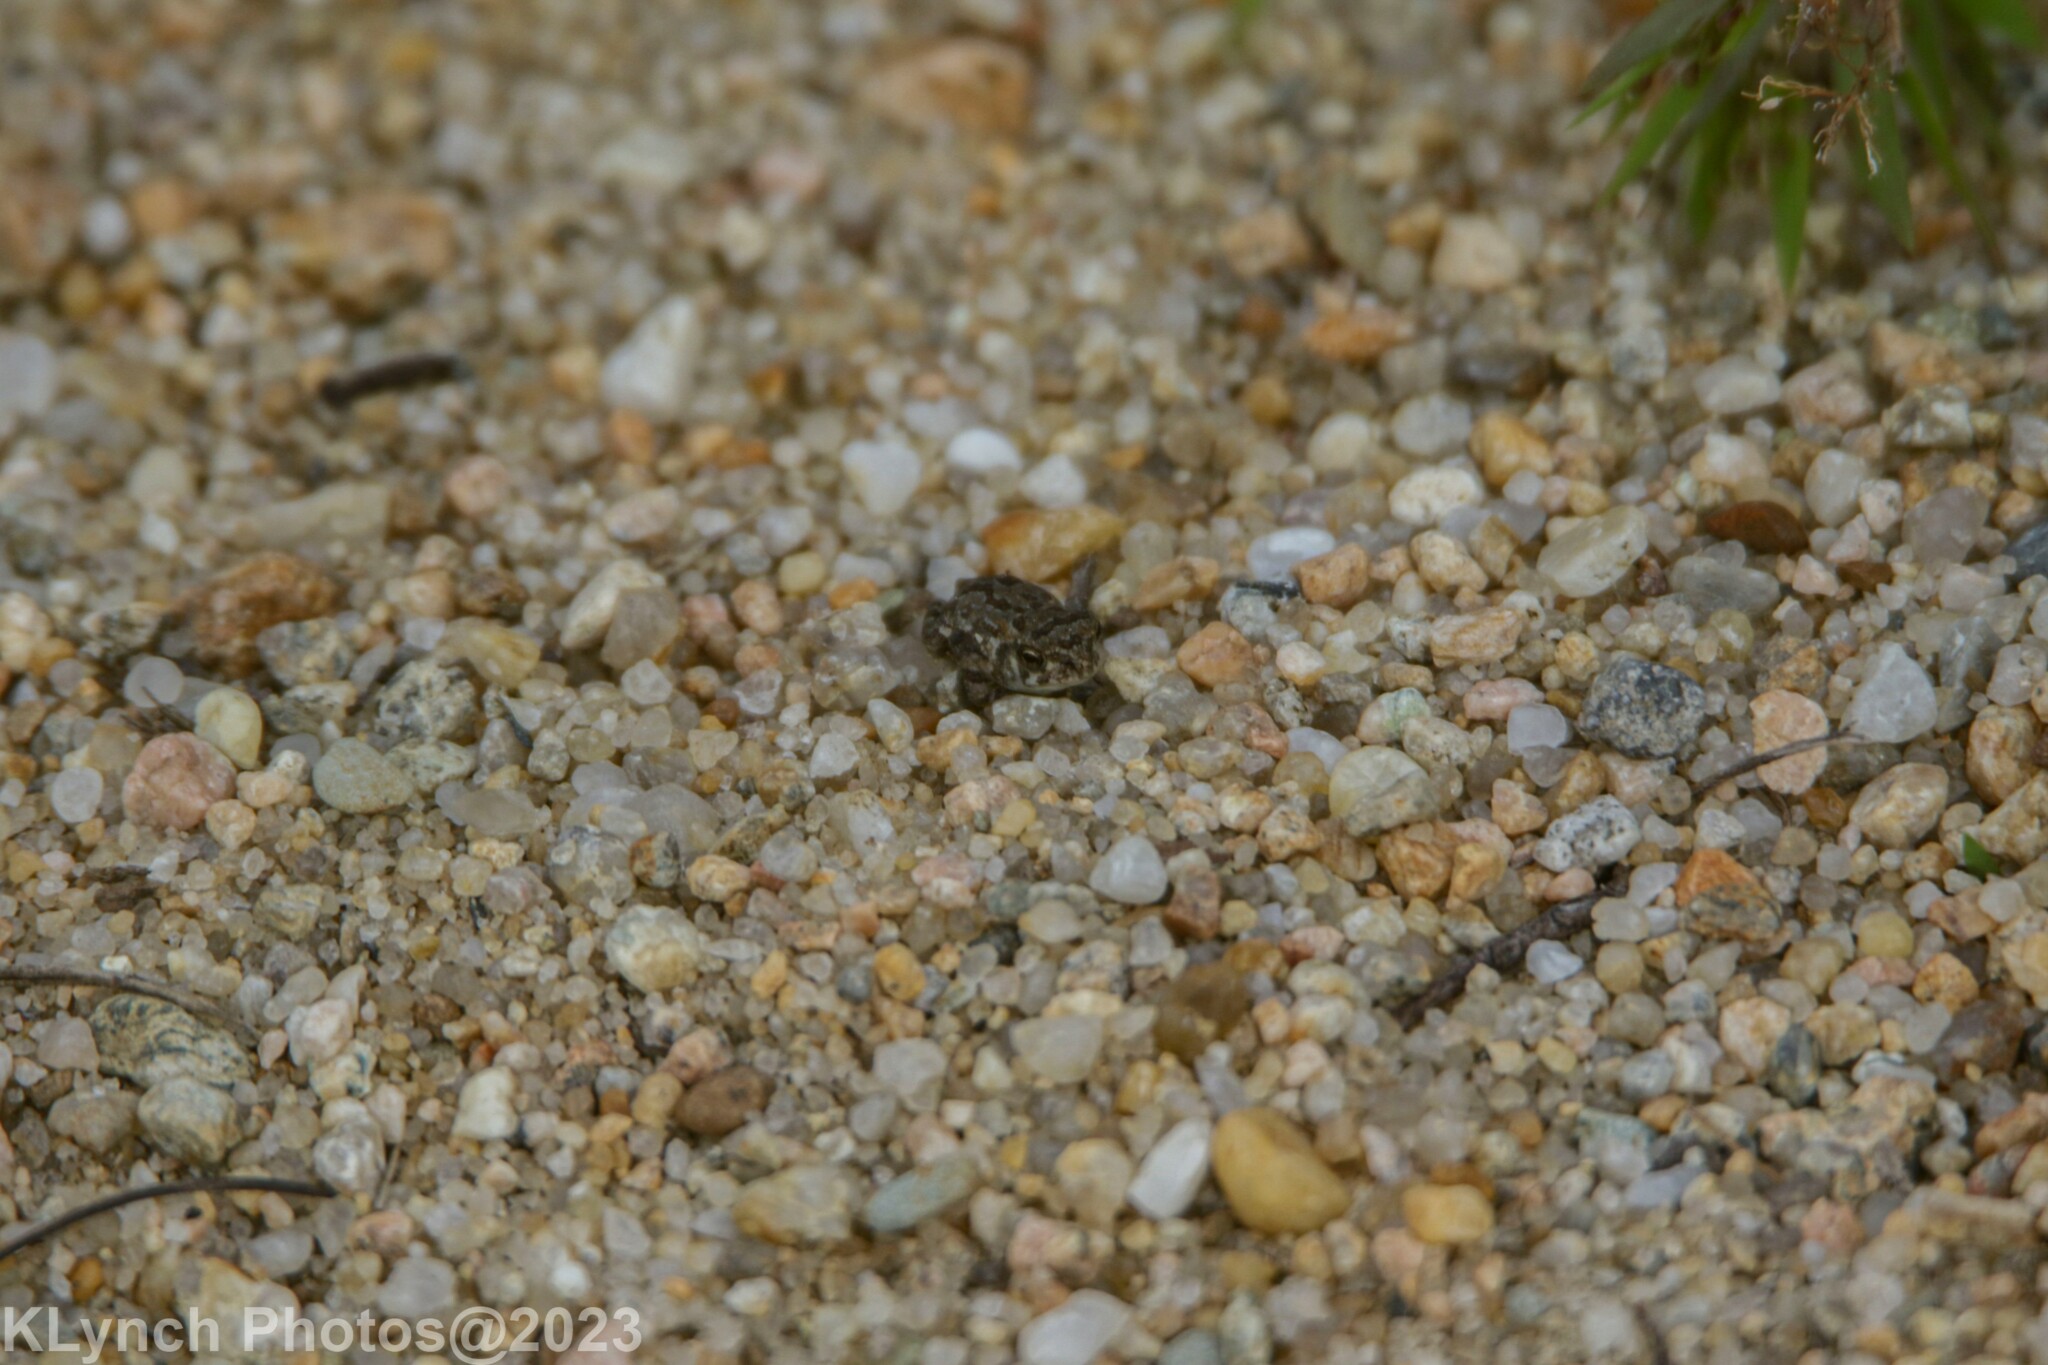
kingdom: Animalia
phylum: Chordata
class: Amphibia
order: Anura
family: Bufonidae
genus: Anaxyrus
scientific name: Anaxyrus fowleri
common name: Fowler's toad
